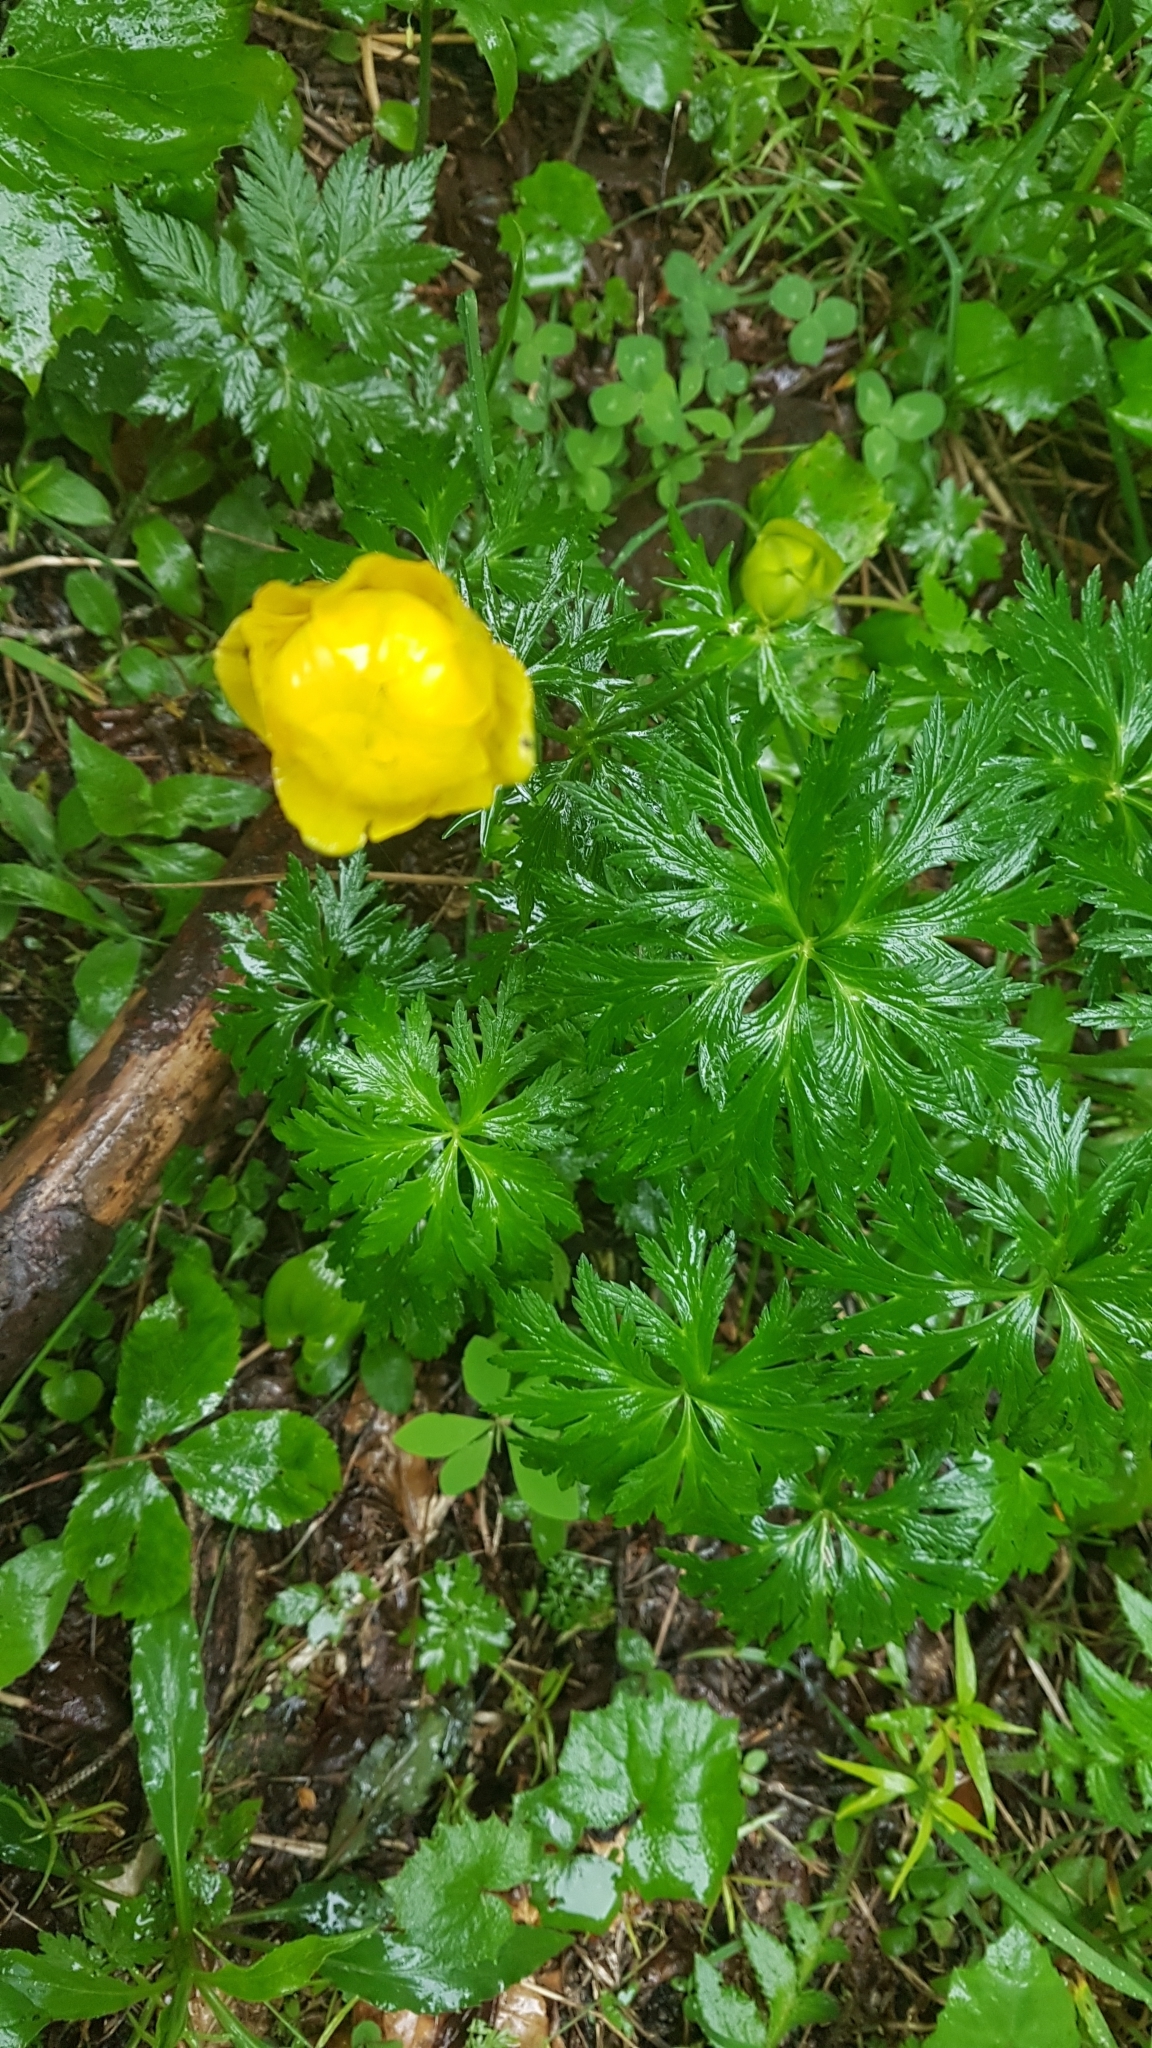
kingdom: Plantae
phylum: Tracheophyta
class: Magnoliopsida
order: Ranunculales
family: Ranunculaceae
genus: Trollius
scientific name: Trollius europaeus
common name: European globeflower
